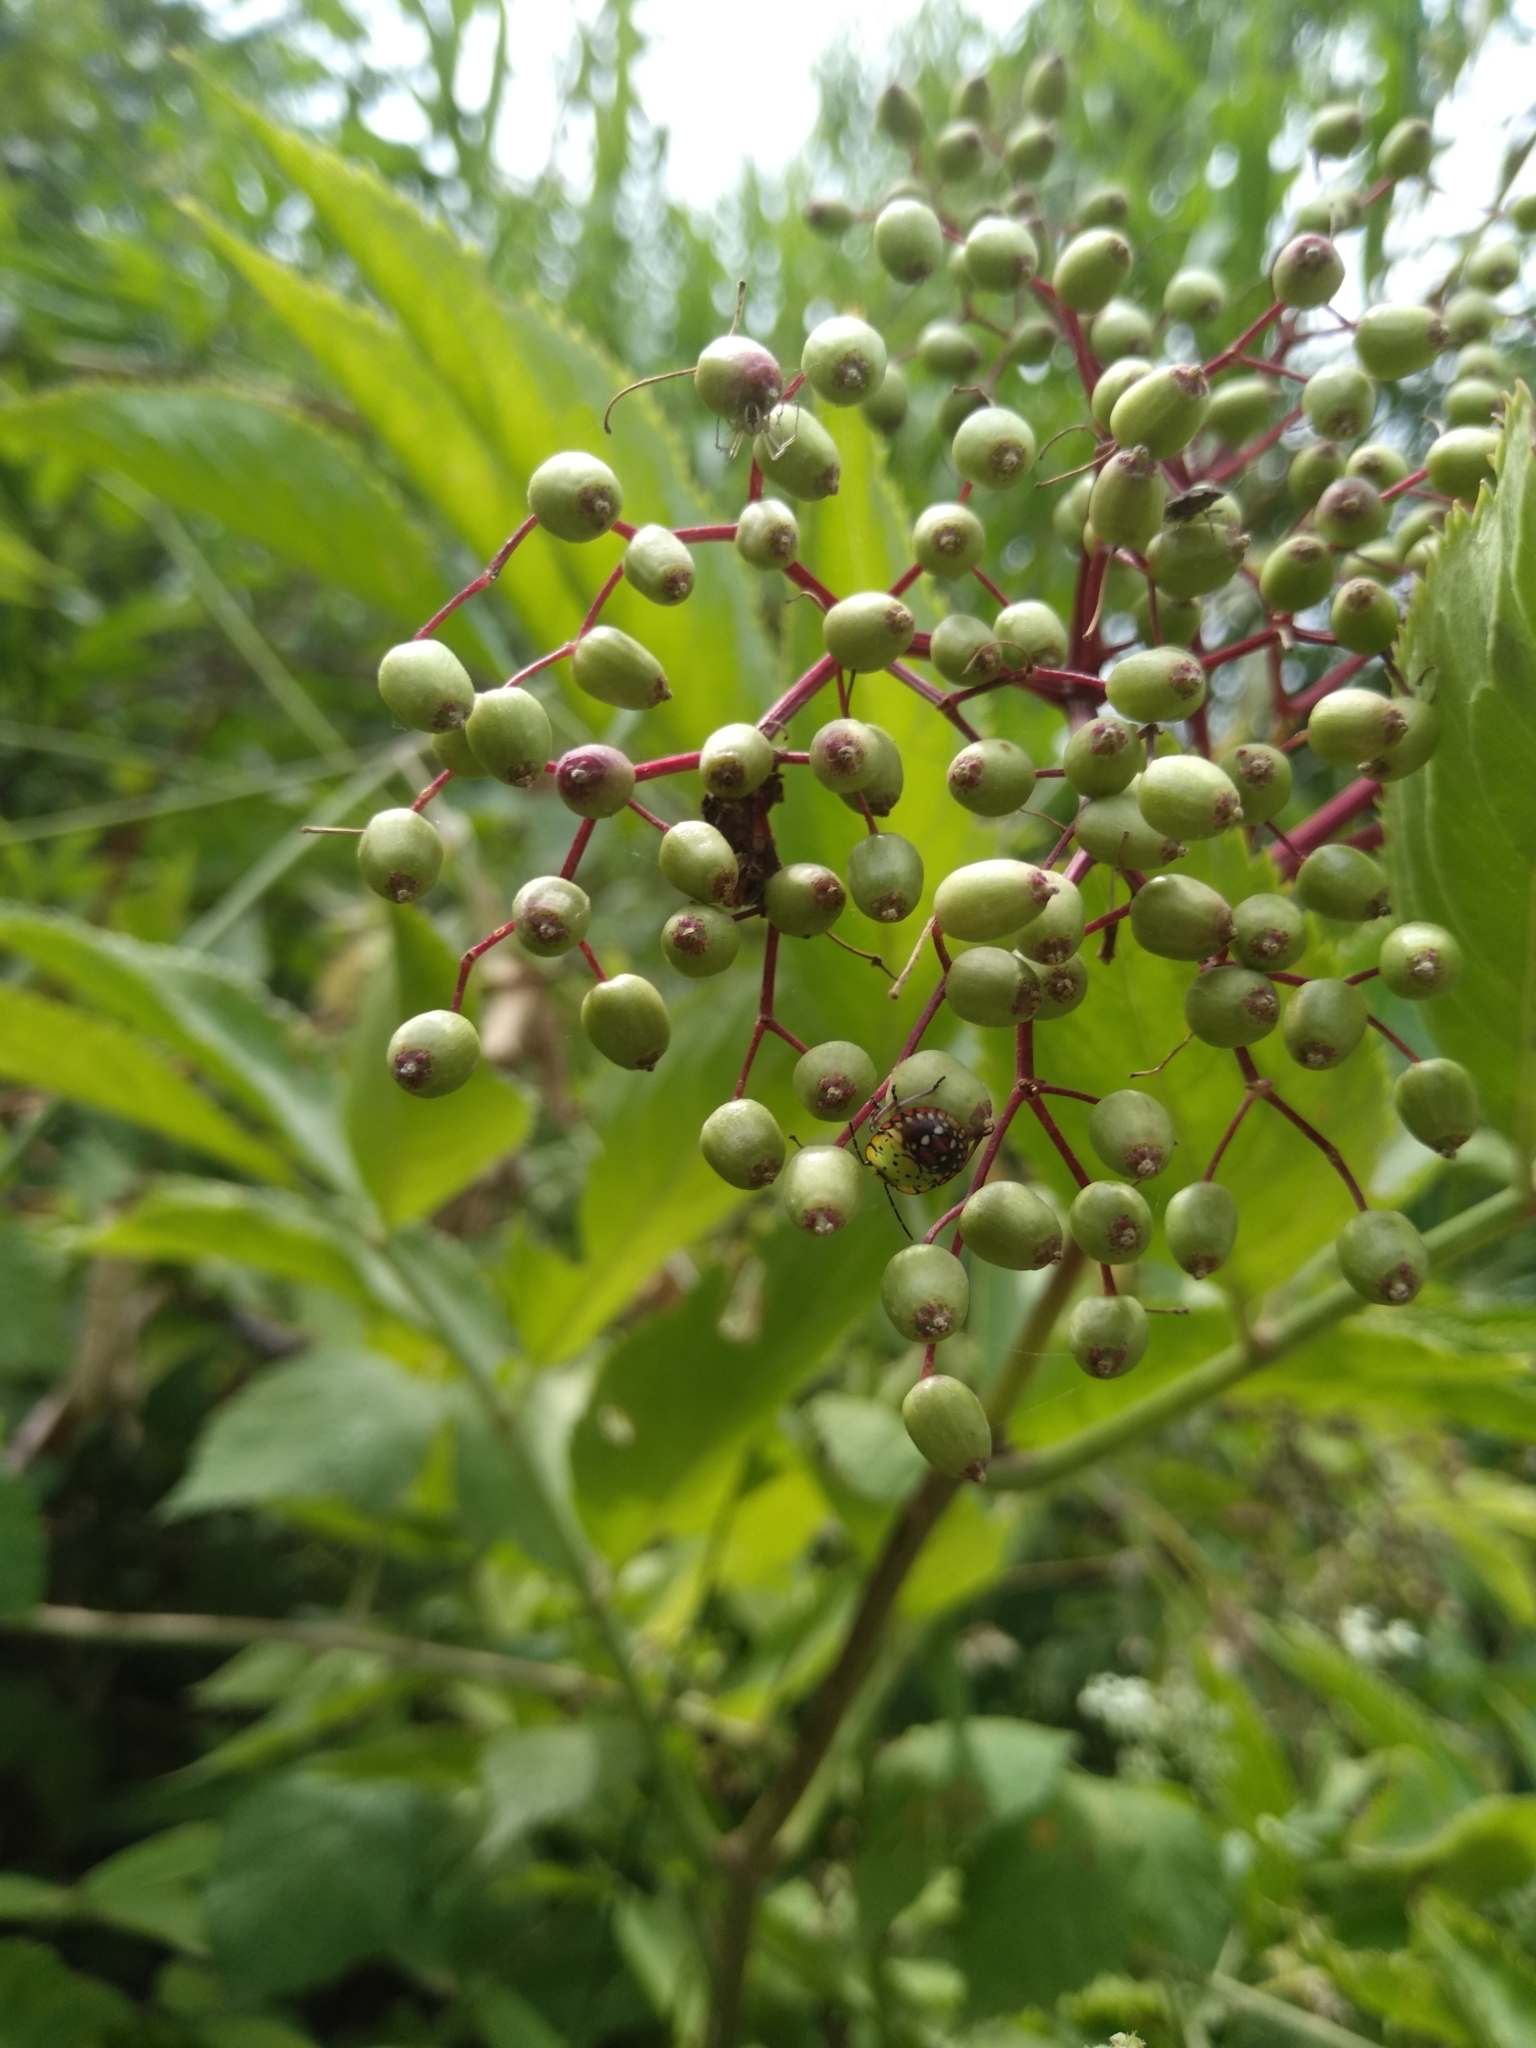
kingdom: Animalia
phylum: Arthropoda
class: Insecta
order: Hemiptera
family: Pentatomidae
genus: Nezara
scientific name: Nezara viridula
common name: Southern green stink bug
